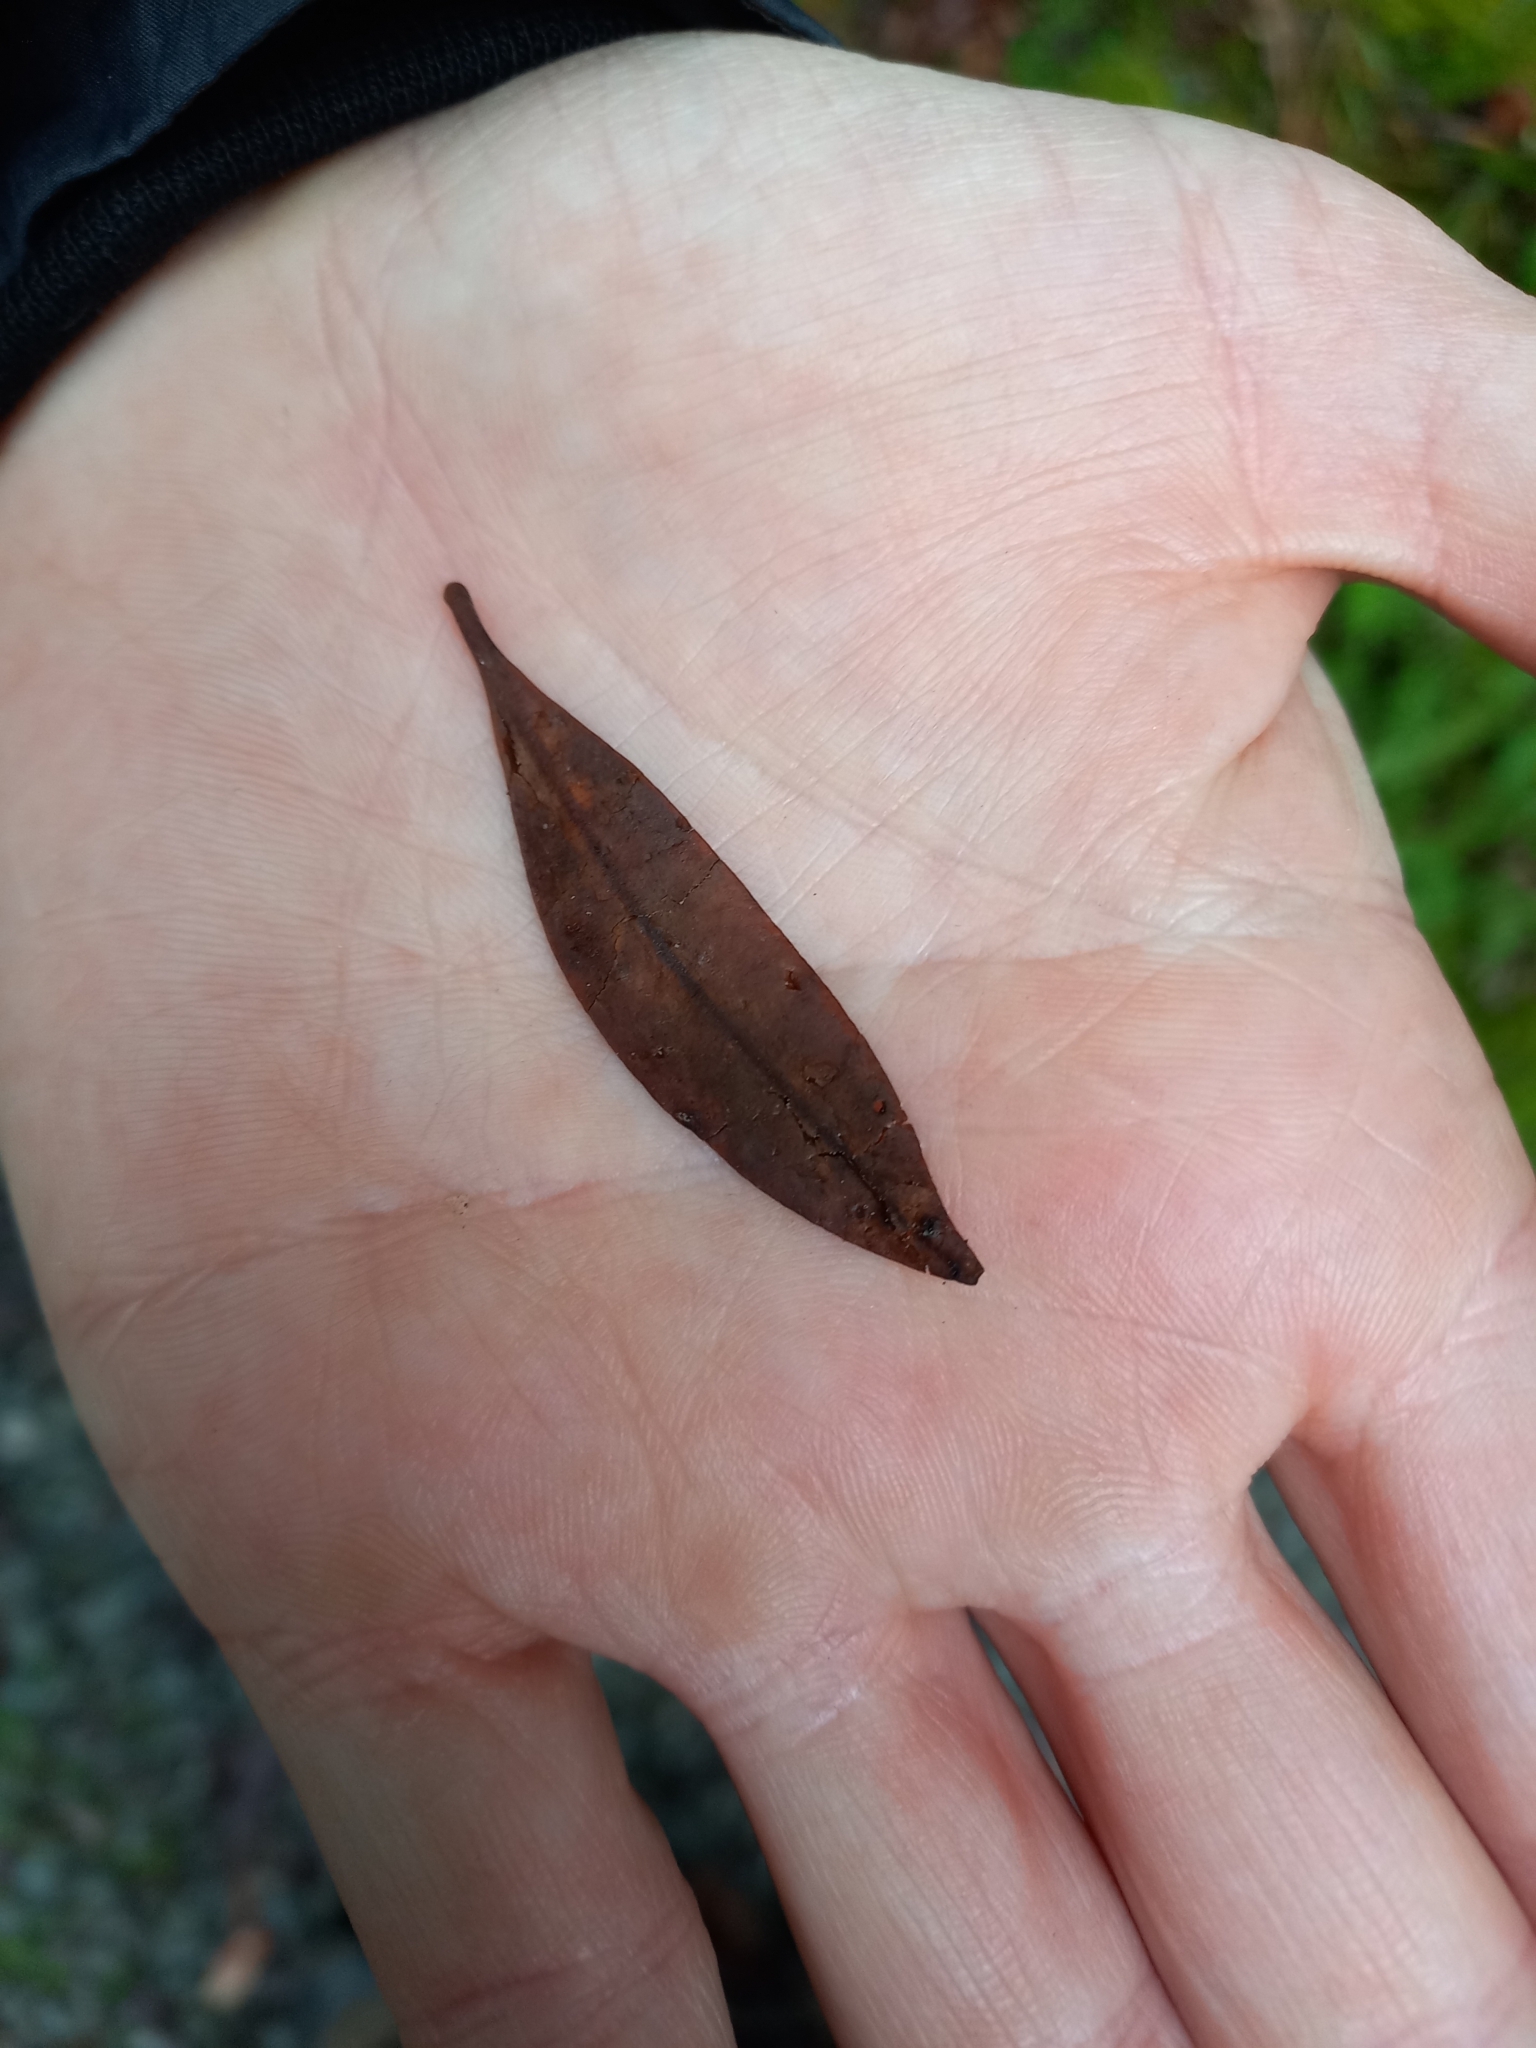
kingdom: Plantae
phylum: Tracheophyta
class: Magnoliopsida
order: Myrtales
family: Myrtaceae
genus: Metrosideros
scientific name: Metrosideros umbellata
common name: Southern rata
